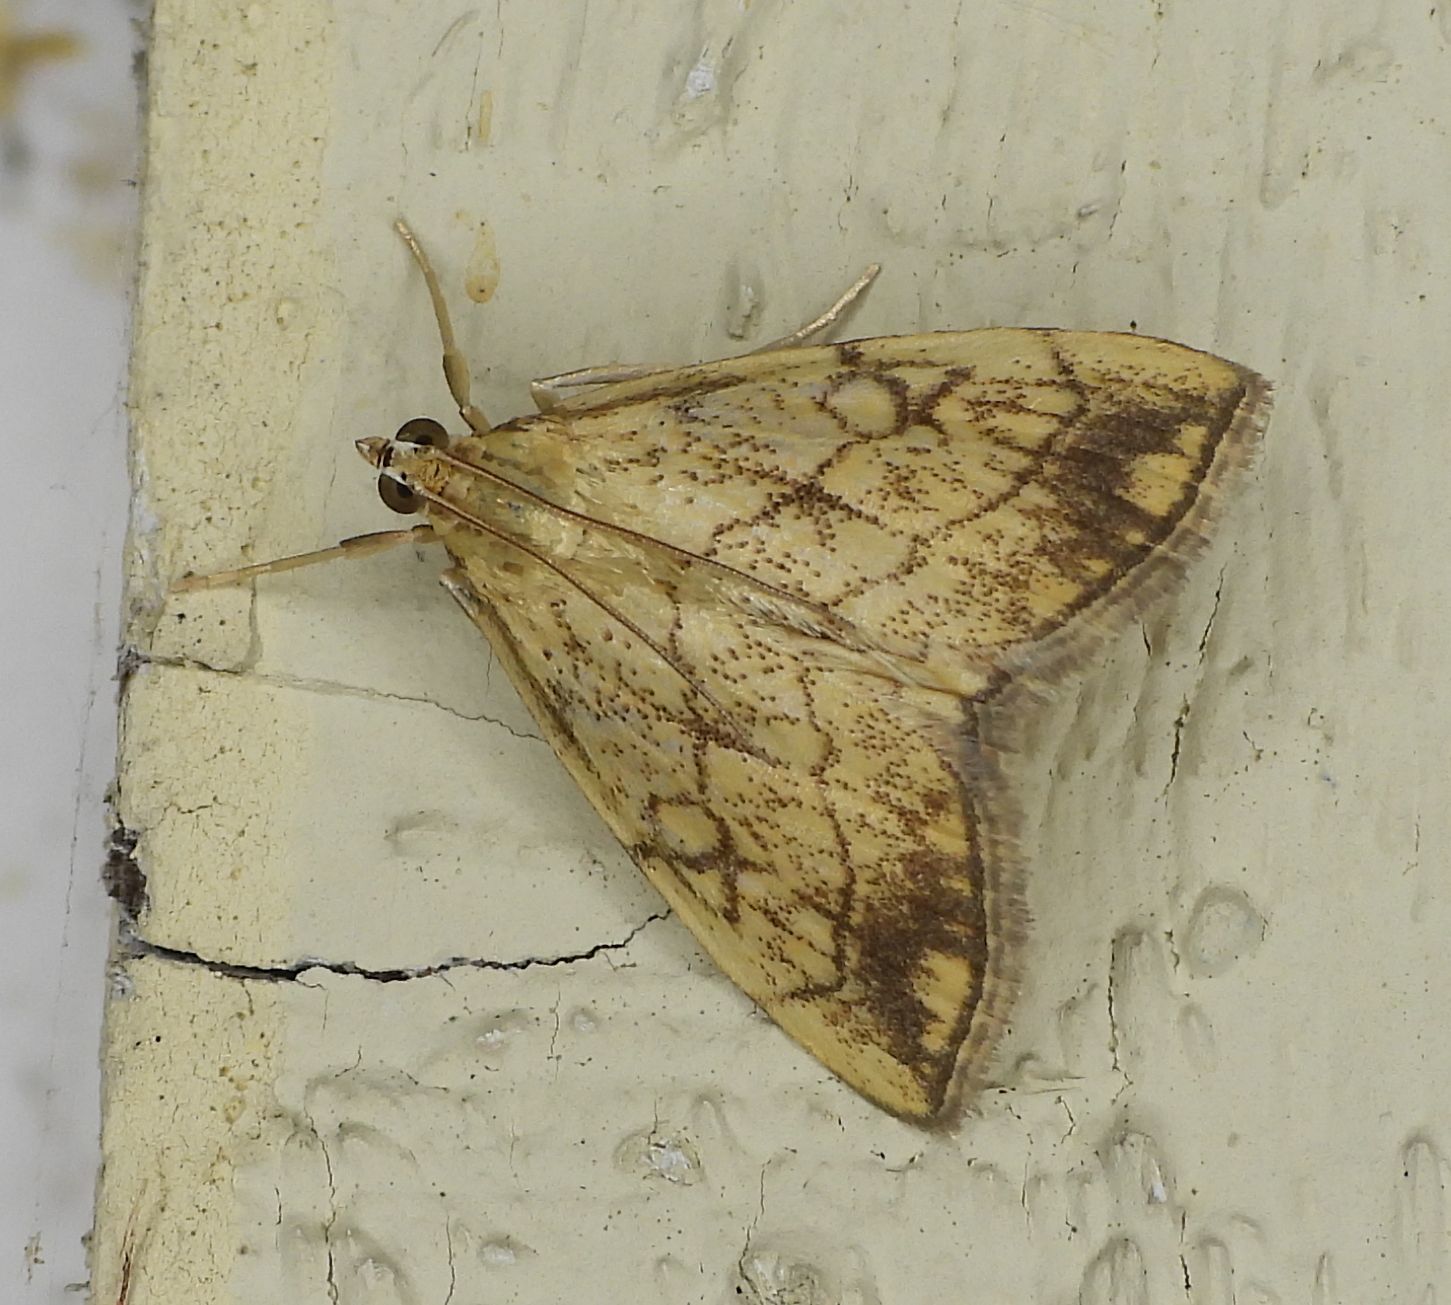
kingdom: Animalia
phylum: Arthropoda
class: Insecta
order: Lepidoptera
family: Crambidae
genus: Evergestis
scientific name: Evergestis pallidata
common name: Chequered pearl
